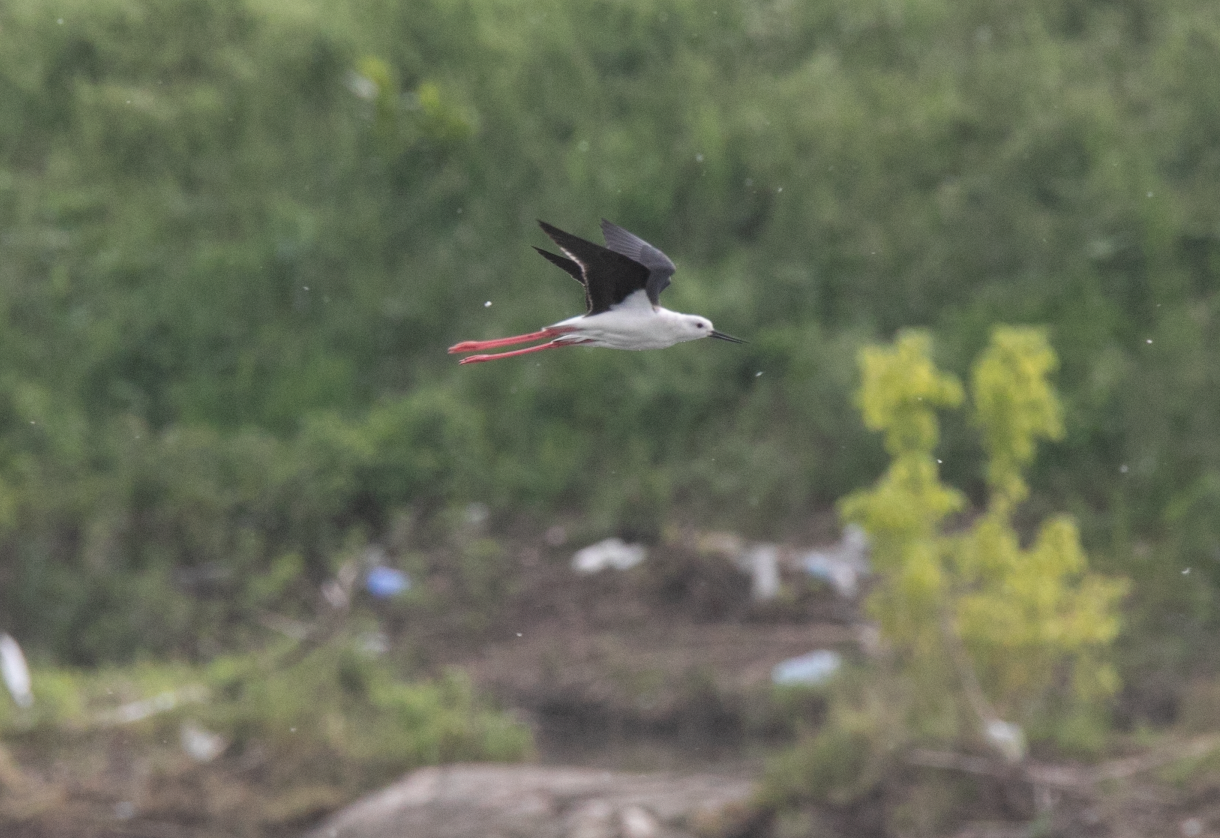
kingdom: Animalia
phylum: Chordata
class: Aves
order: Charadriiformes
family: Recurvirostridae
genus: Himantopus
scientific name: Himantopus himantopus
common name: Black-winged stilt
